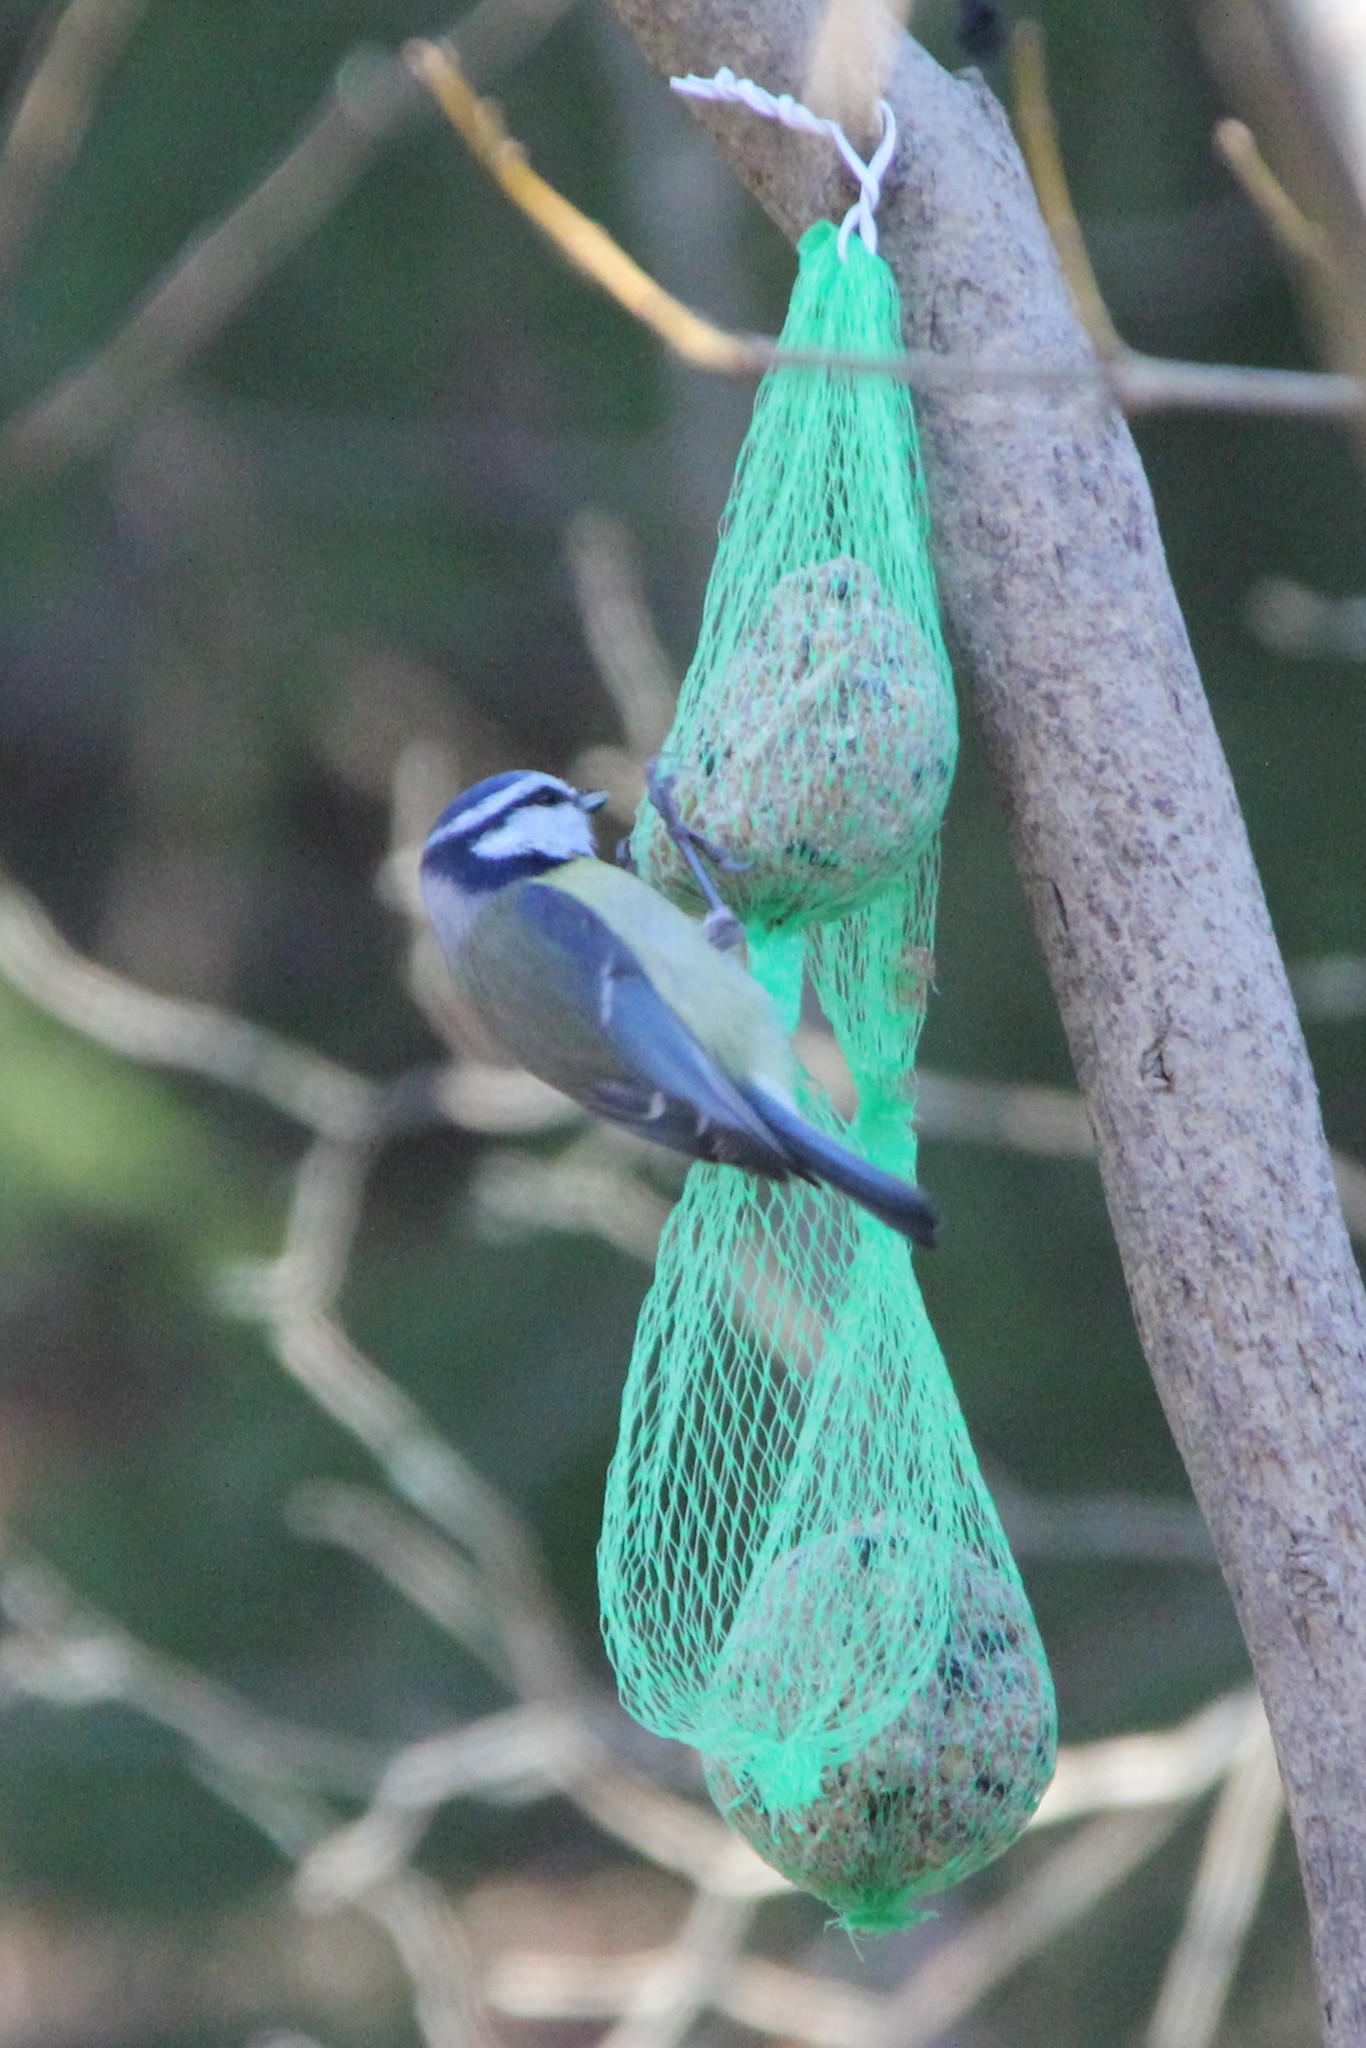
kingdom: Animalia
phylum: Chordata
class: Aves
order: Passeriformes
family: Paridae
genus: Cyanistes
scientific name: Cyanistes caeruleus
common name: Eurasian blue tit
